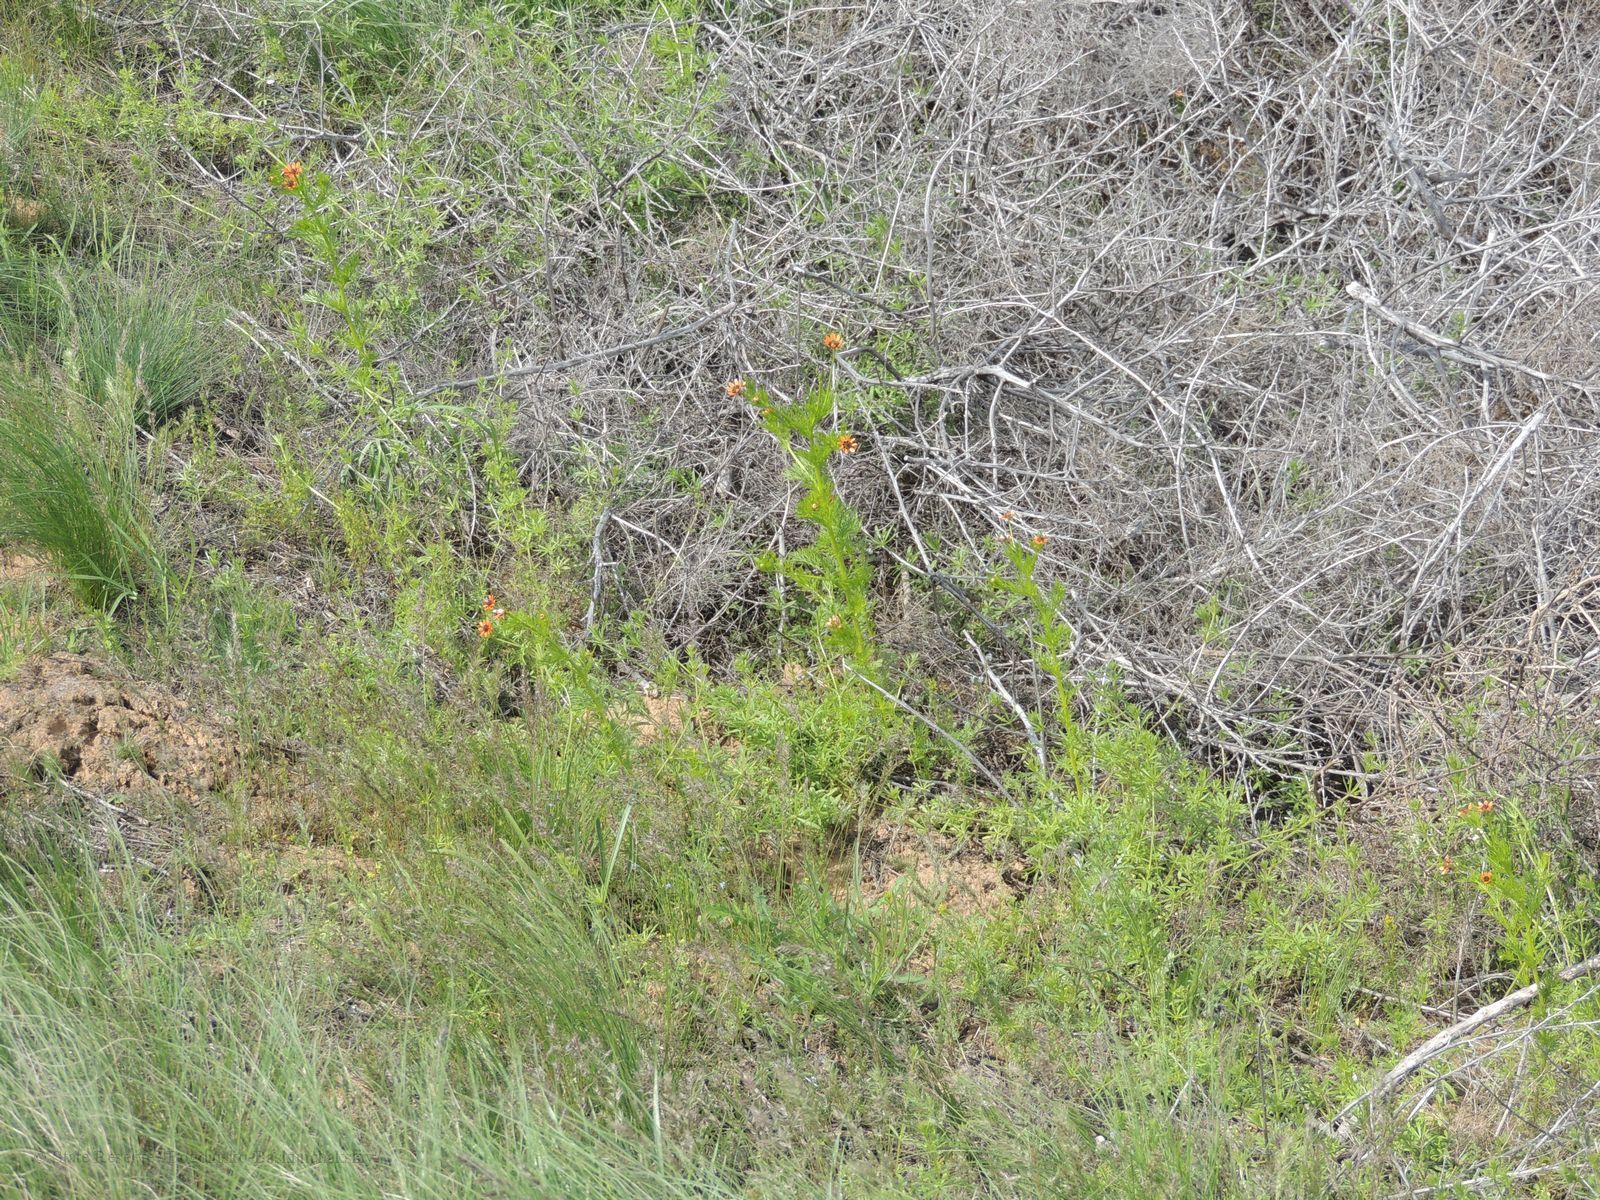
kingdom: Plantae
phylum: Tracheophyta
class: Magnoliopsida
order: Ranunculales
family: Ranunculaceae
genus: Adonis
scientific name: Adonis aestivalis
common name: Summer pheasant's-eye
